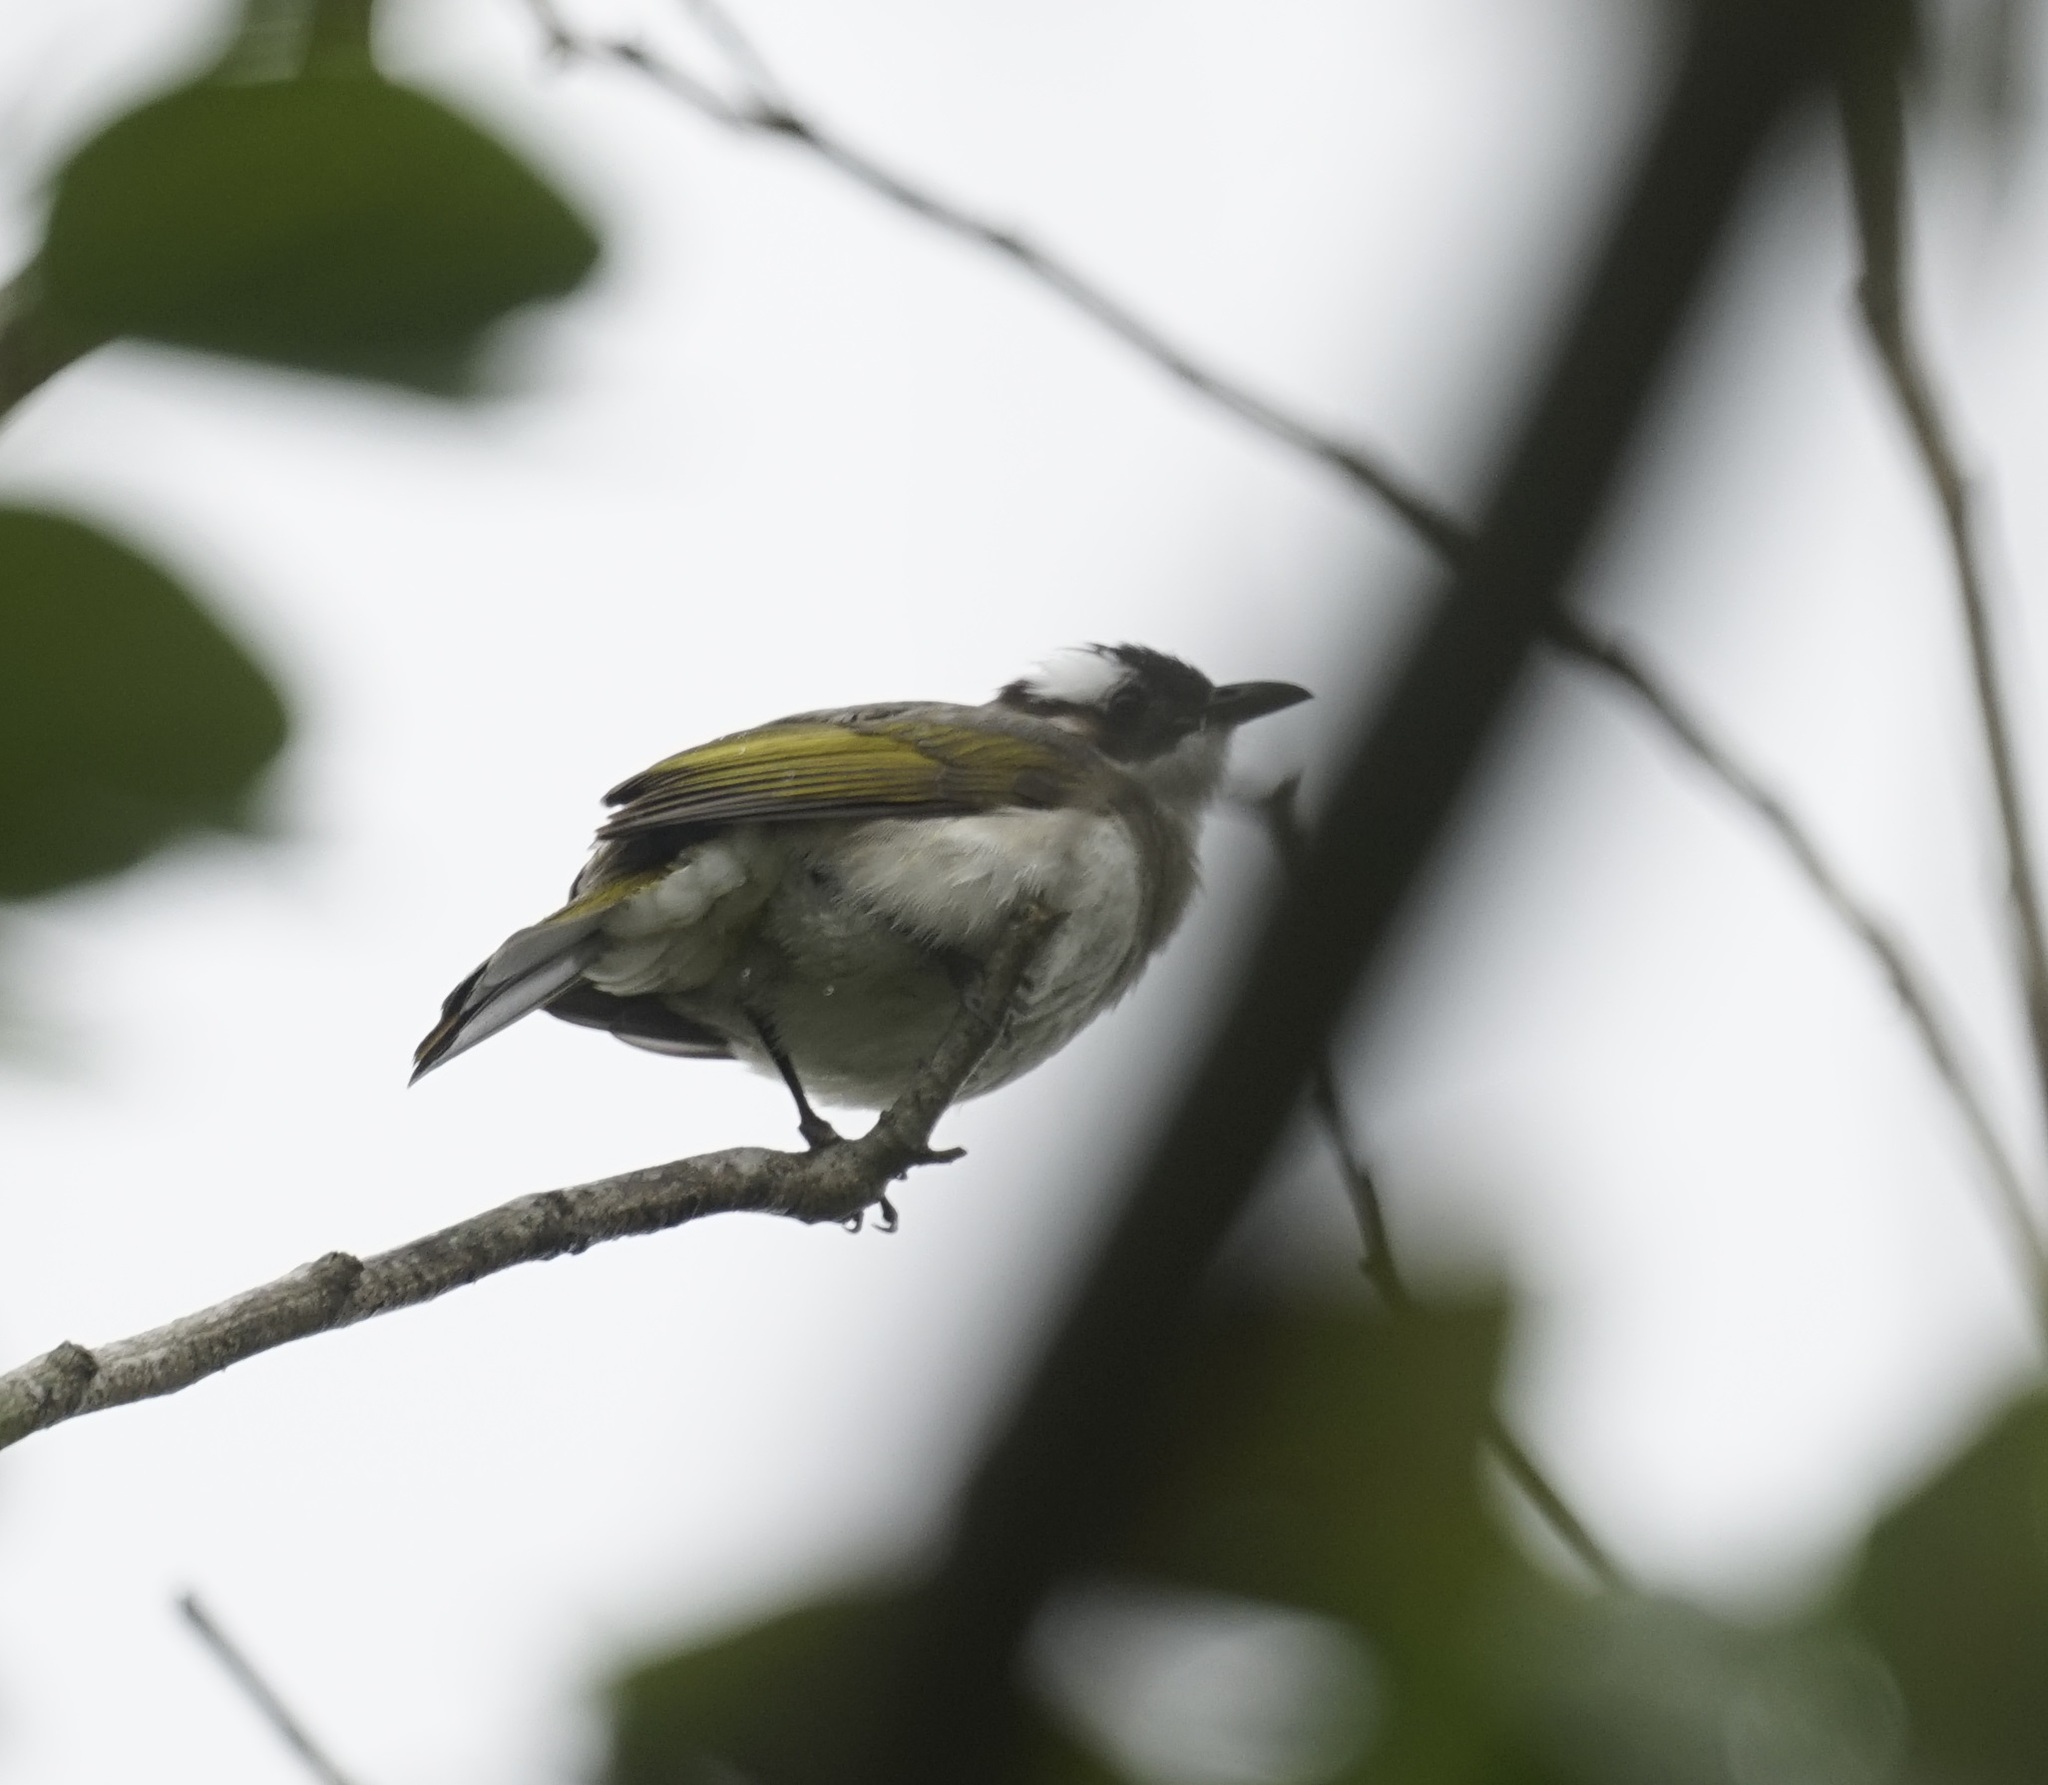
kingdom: Animalia
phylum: Chordata
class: Aves
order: Passeriformes
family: Pycnonotidae
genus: Pycnonotus
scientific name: Pycnonotus sinensis
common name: Light-vented bulbul
